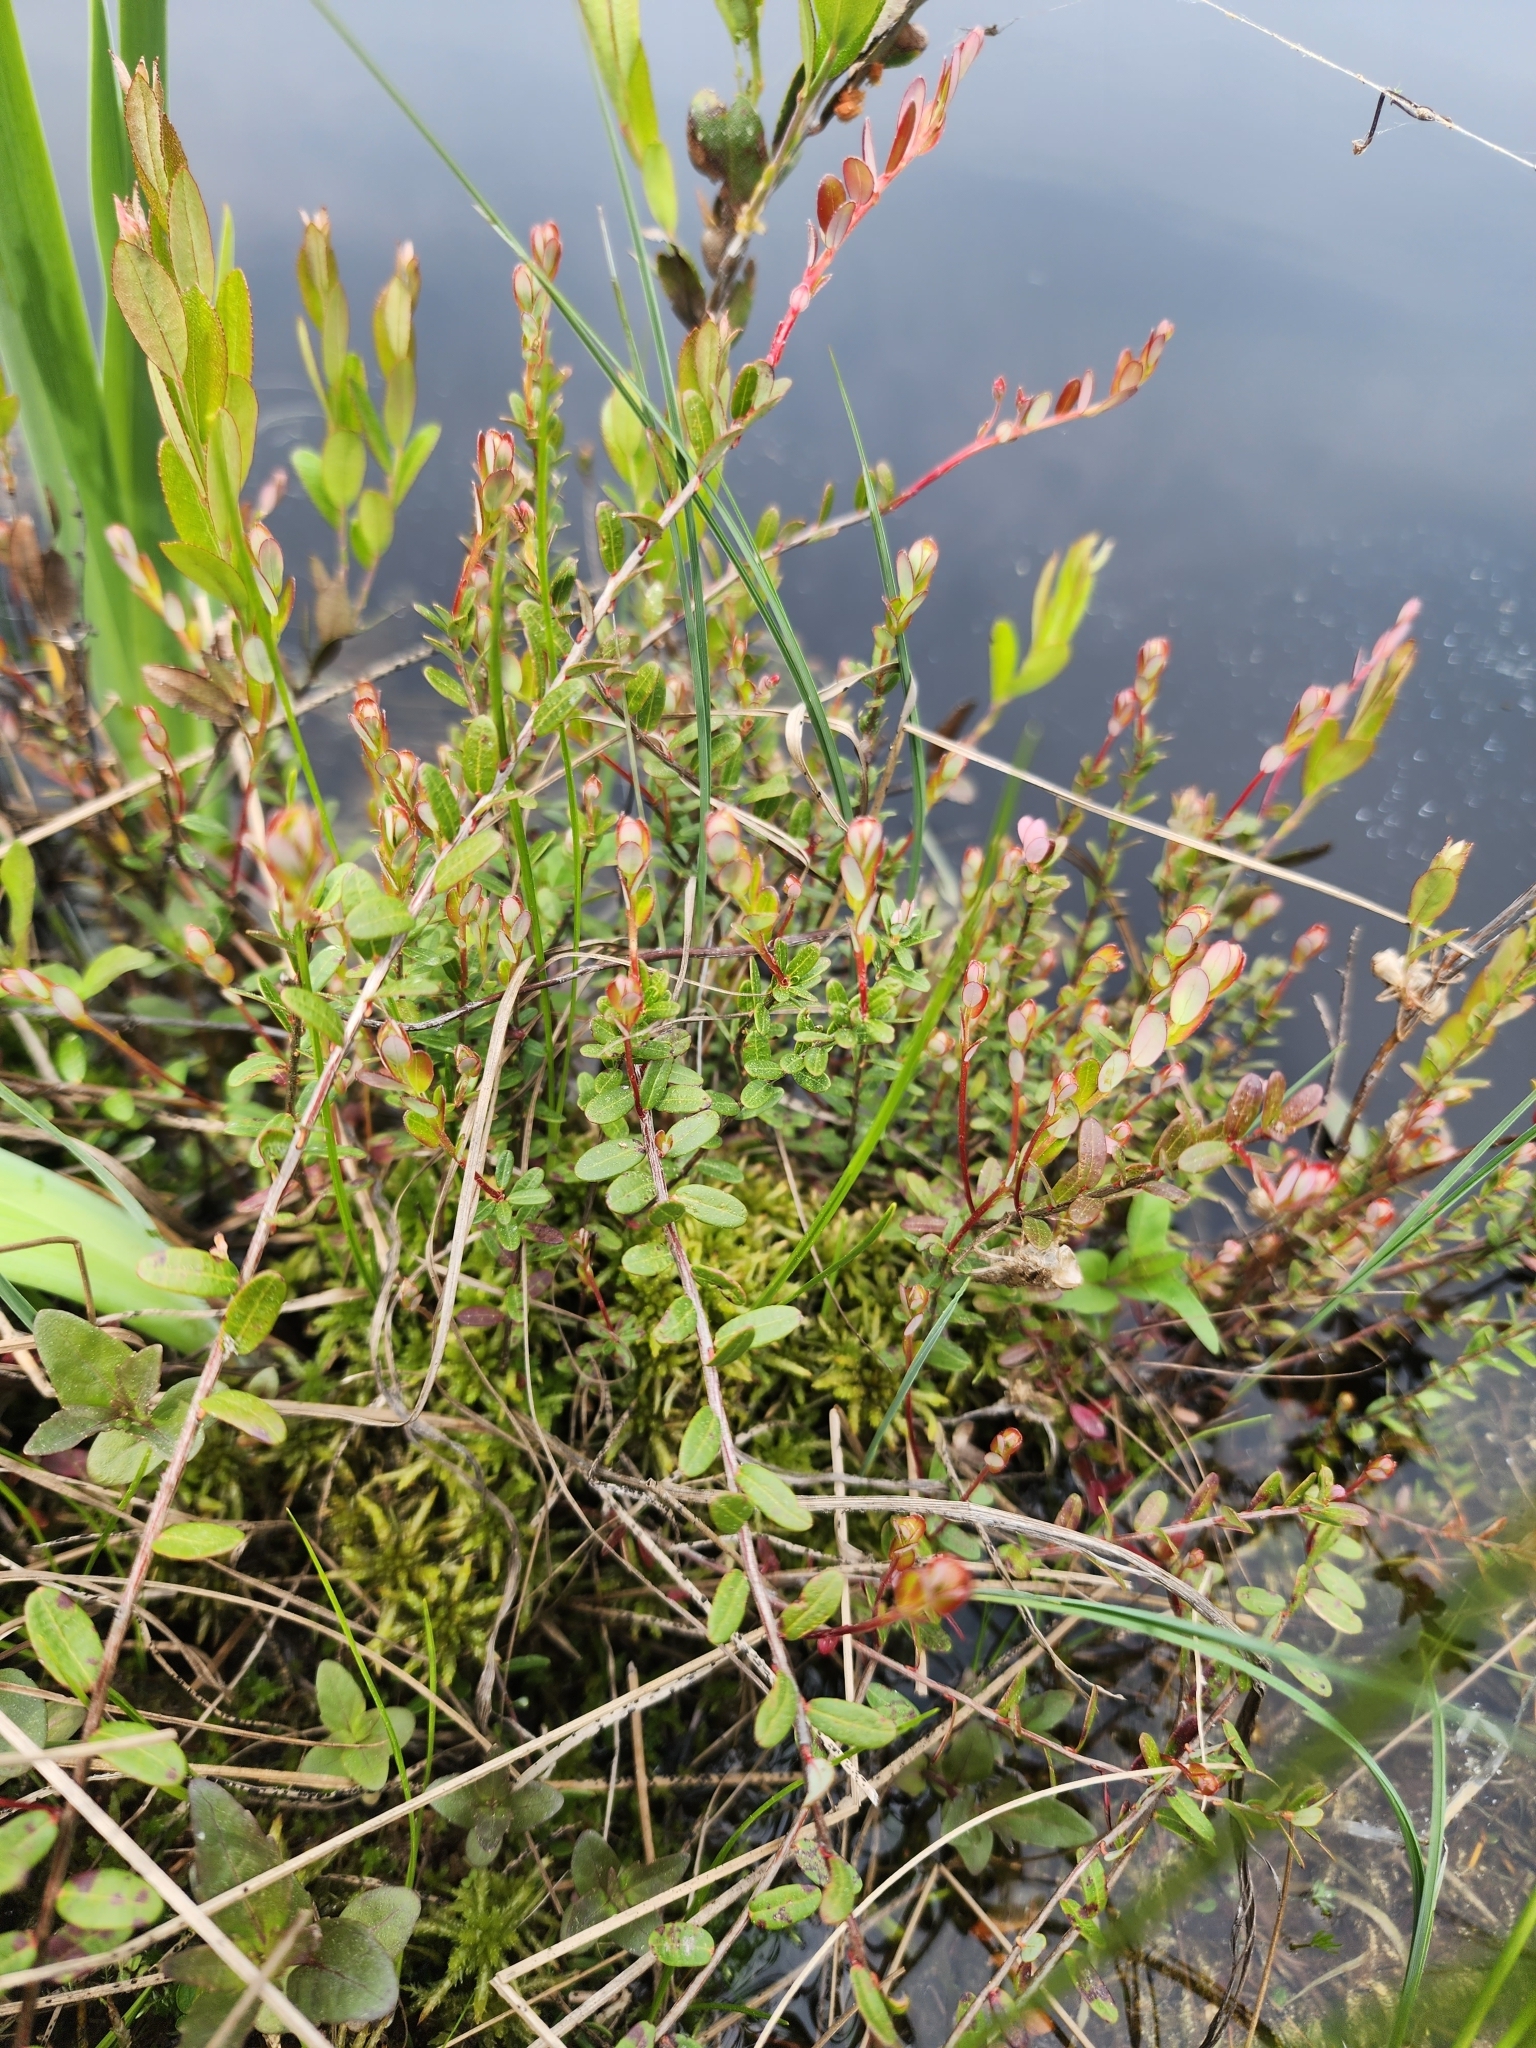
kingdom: Plantae
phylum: Tracheophyta
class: Magnoliopsida
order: Ericales
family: Ericaceae
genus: Vaccinium
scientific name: Vaccinium macrocarpon
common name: American cranberry
